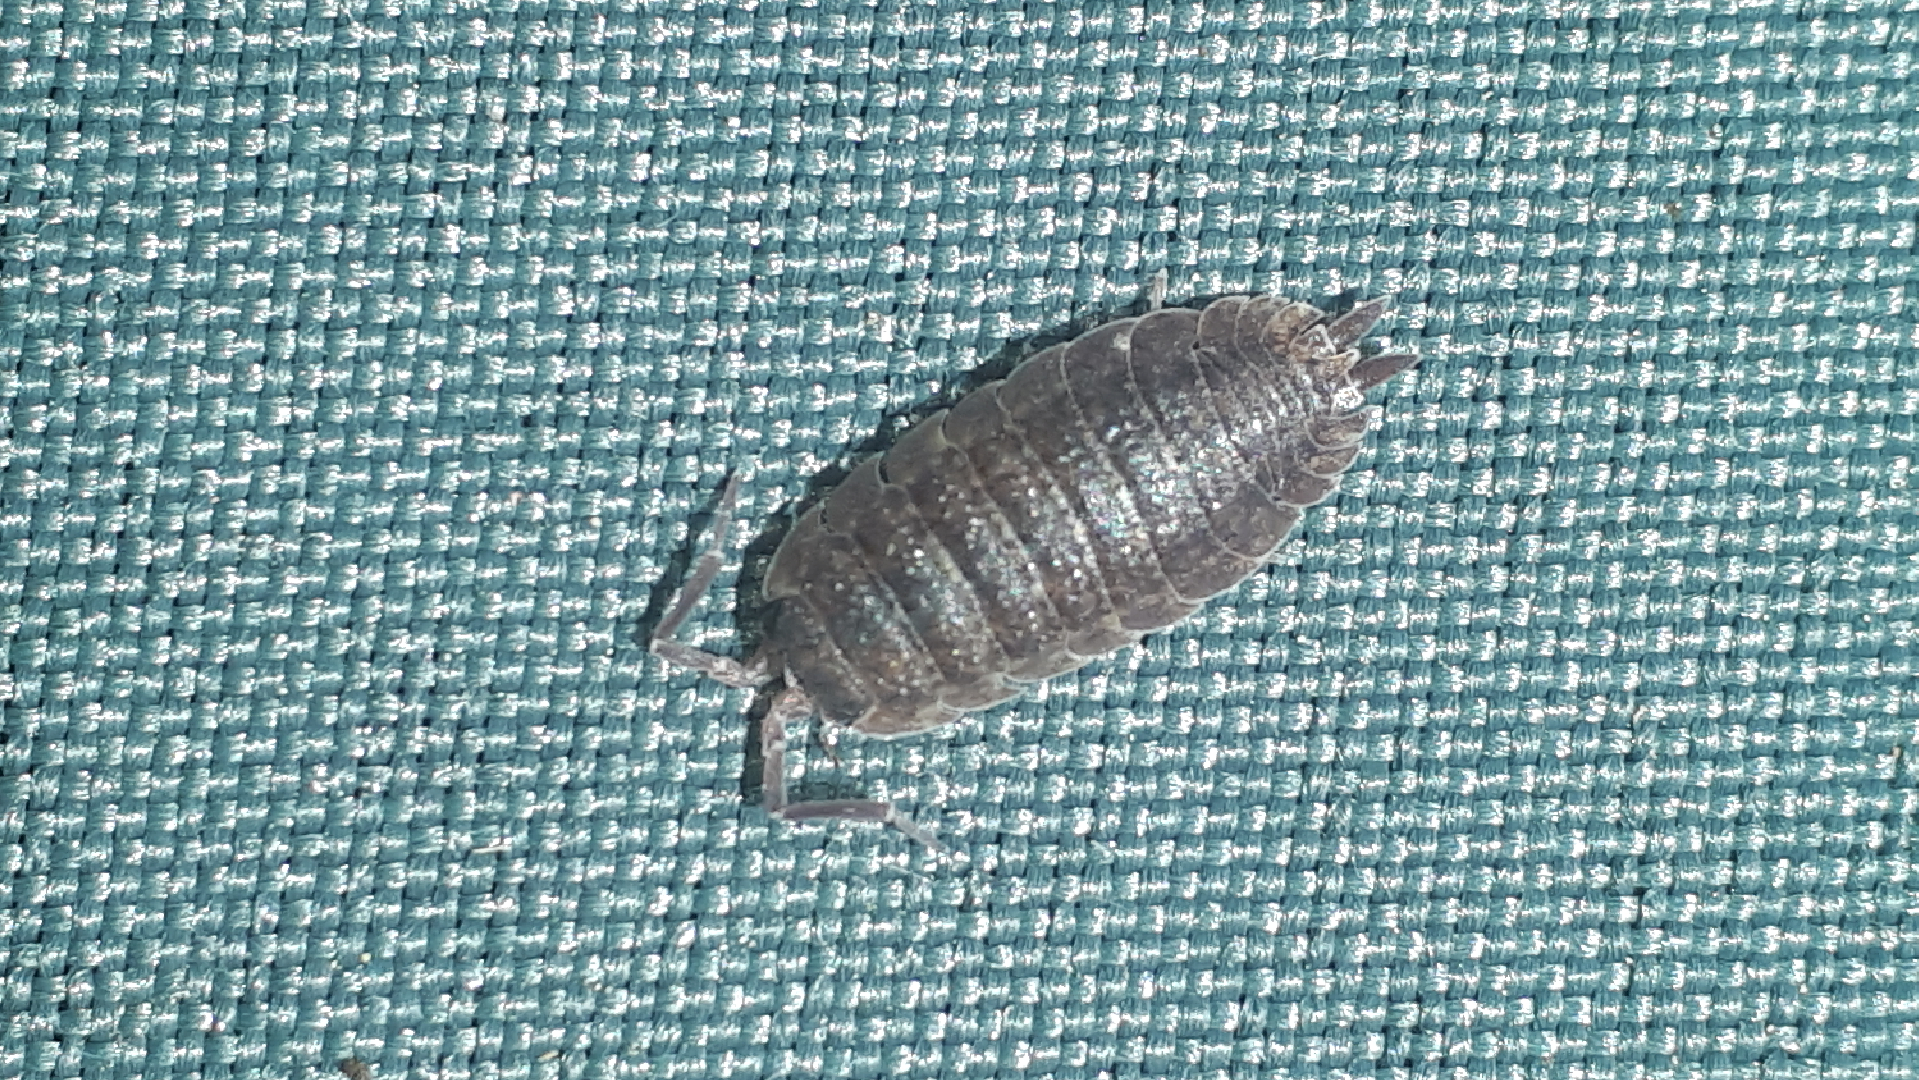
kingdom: Animalia
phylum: Arthropoda
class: Malacostraca
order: Isopoda
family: Porcellionidae
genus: Porcellio
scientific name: Porcellio scaber
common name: Common rough woodlouse
